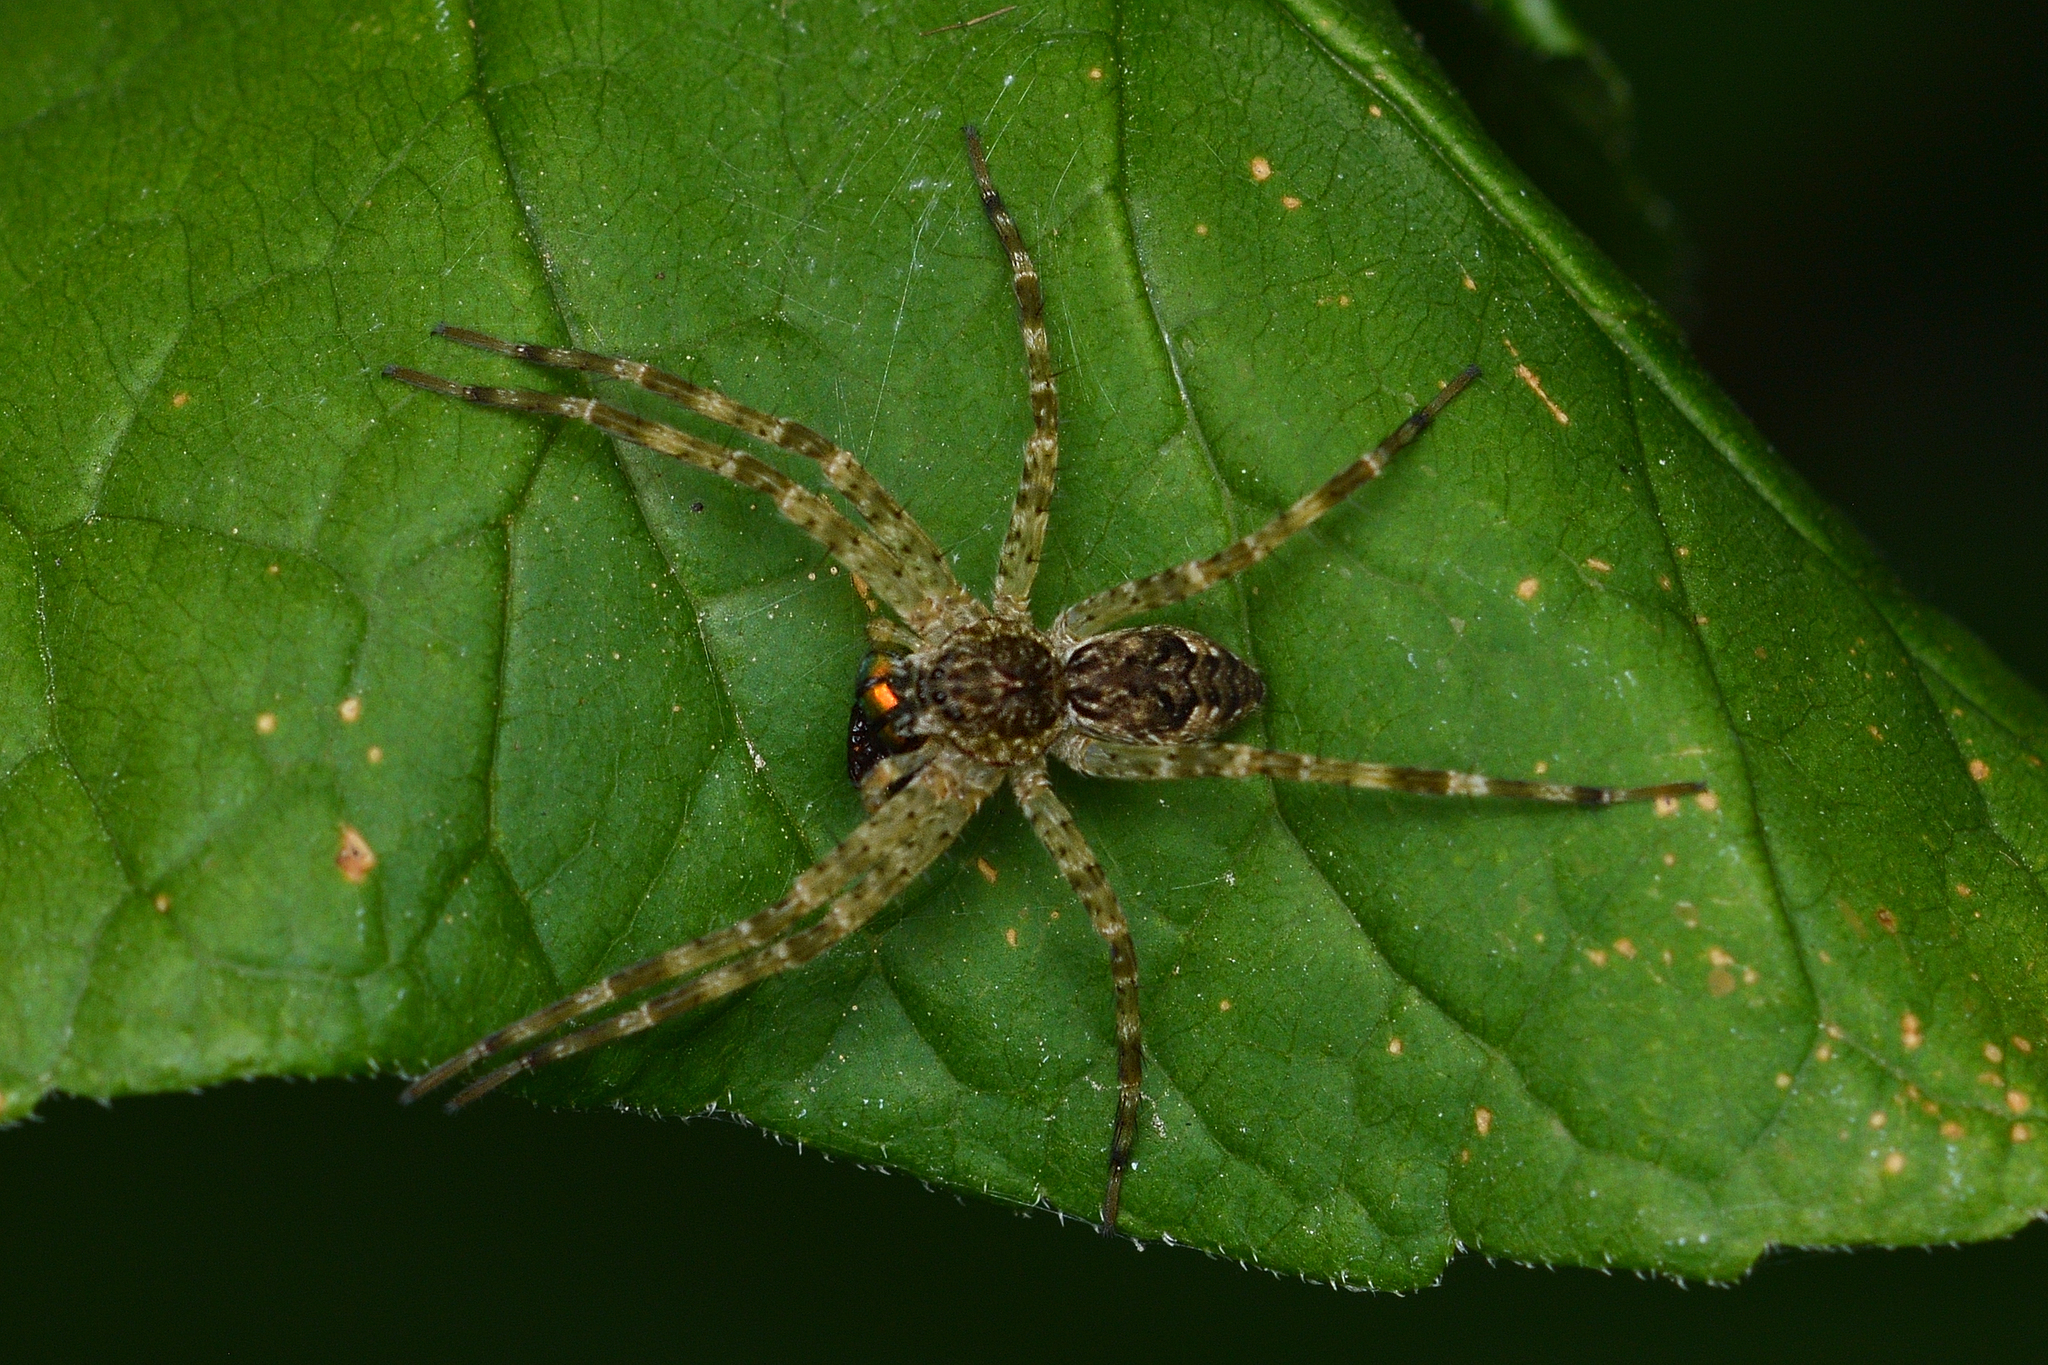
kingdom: Animalia
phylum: Arthropoda
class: Arachnida
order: Araneae
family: Pisauridae
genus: Dolomedes
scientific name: Dolomedes tenebrosus
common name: Dark fishing spider
